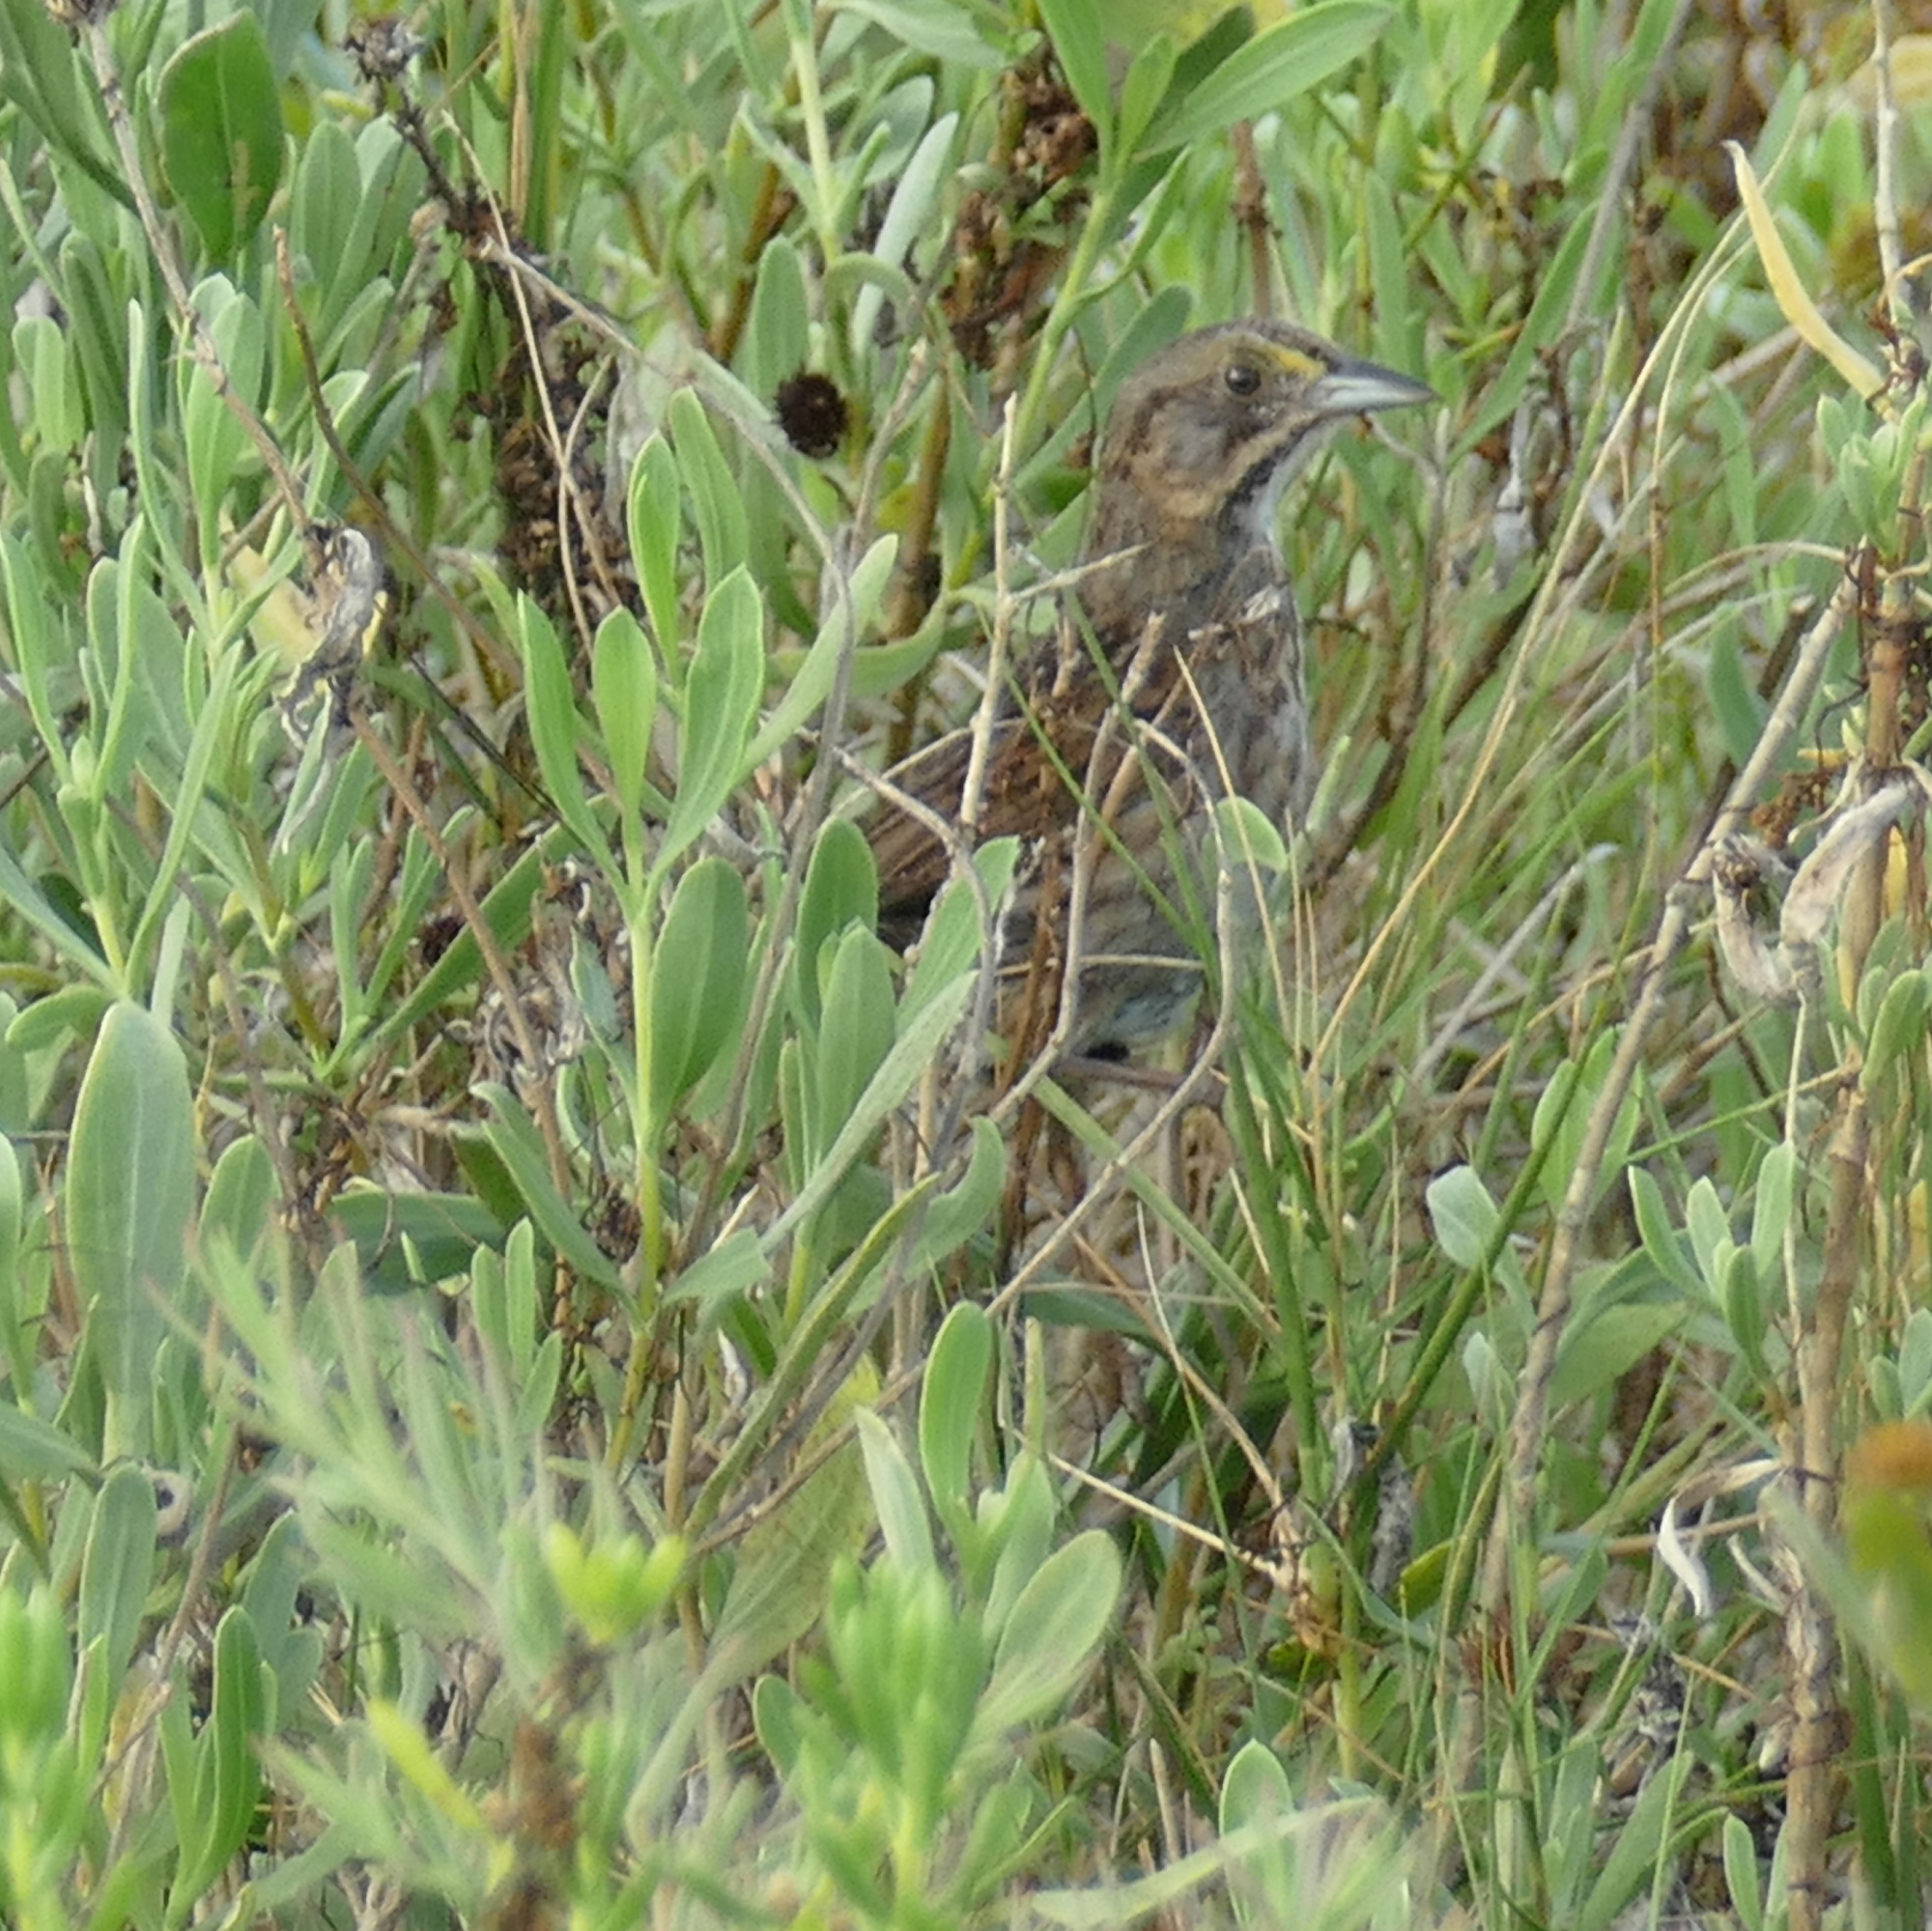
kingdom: Animalia
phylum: Chordata
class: Aves
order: Passeriformes
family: Passerellidae
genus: Ammospiza
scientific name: Ammospiza maritima
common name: Seaside sparrow
